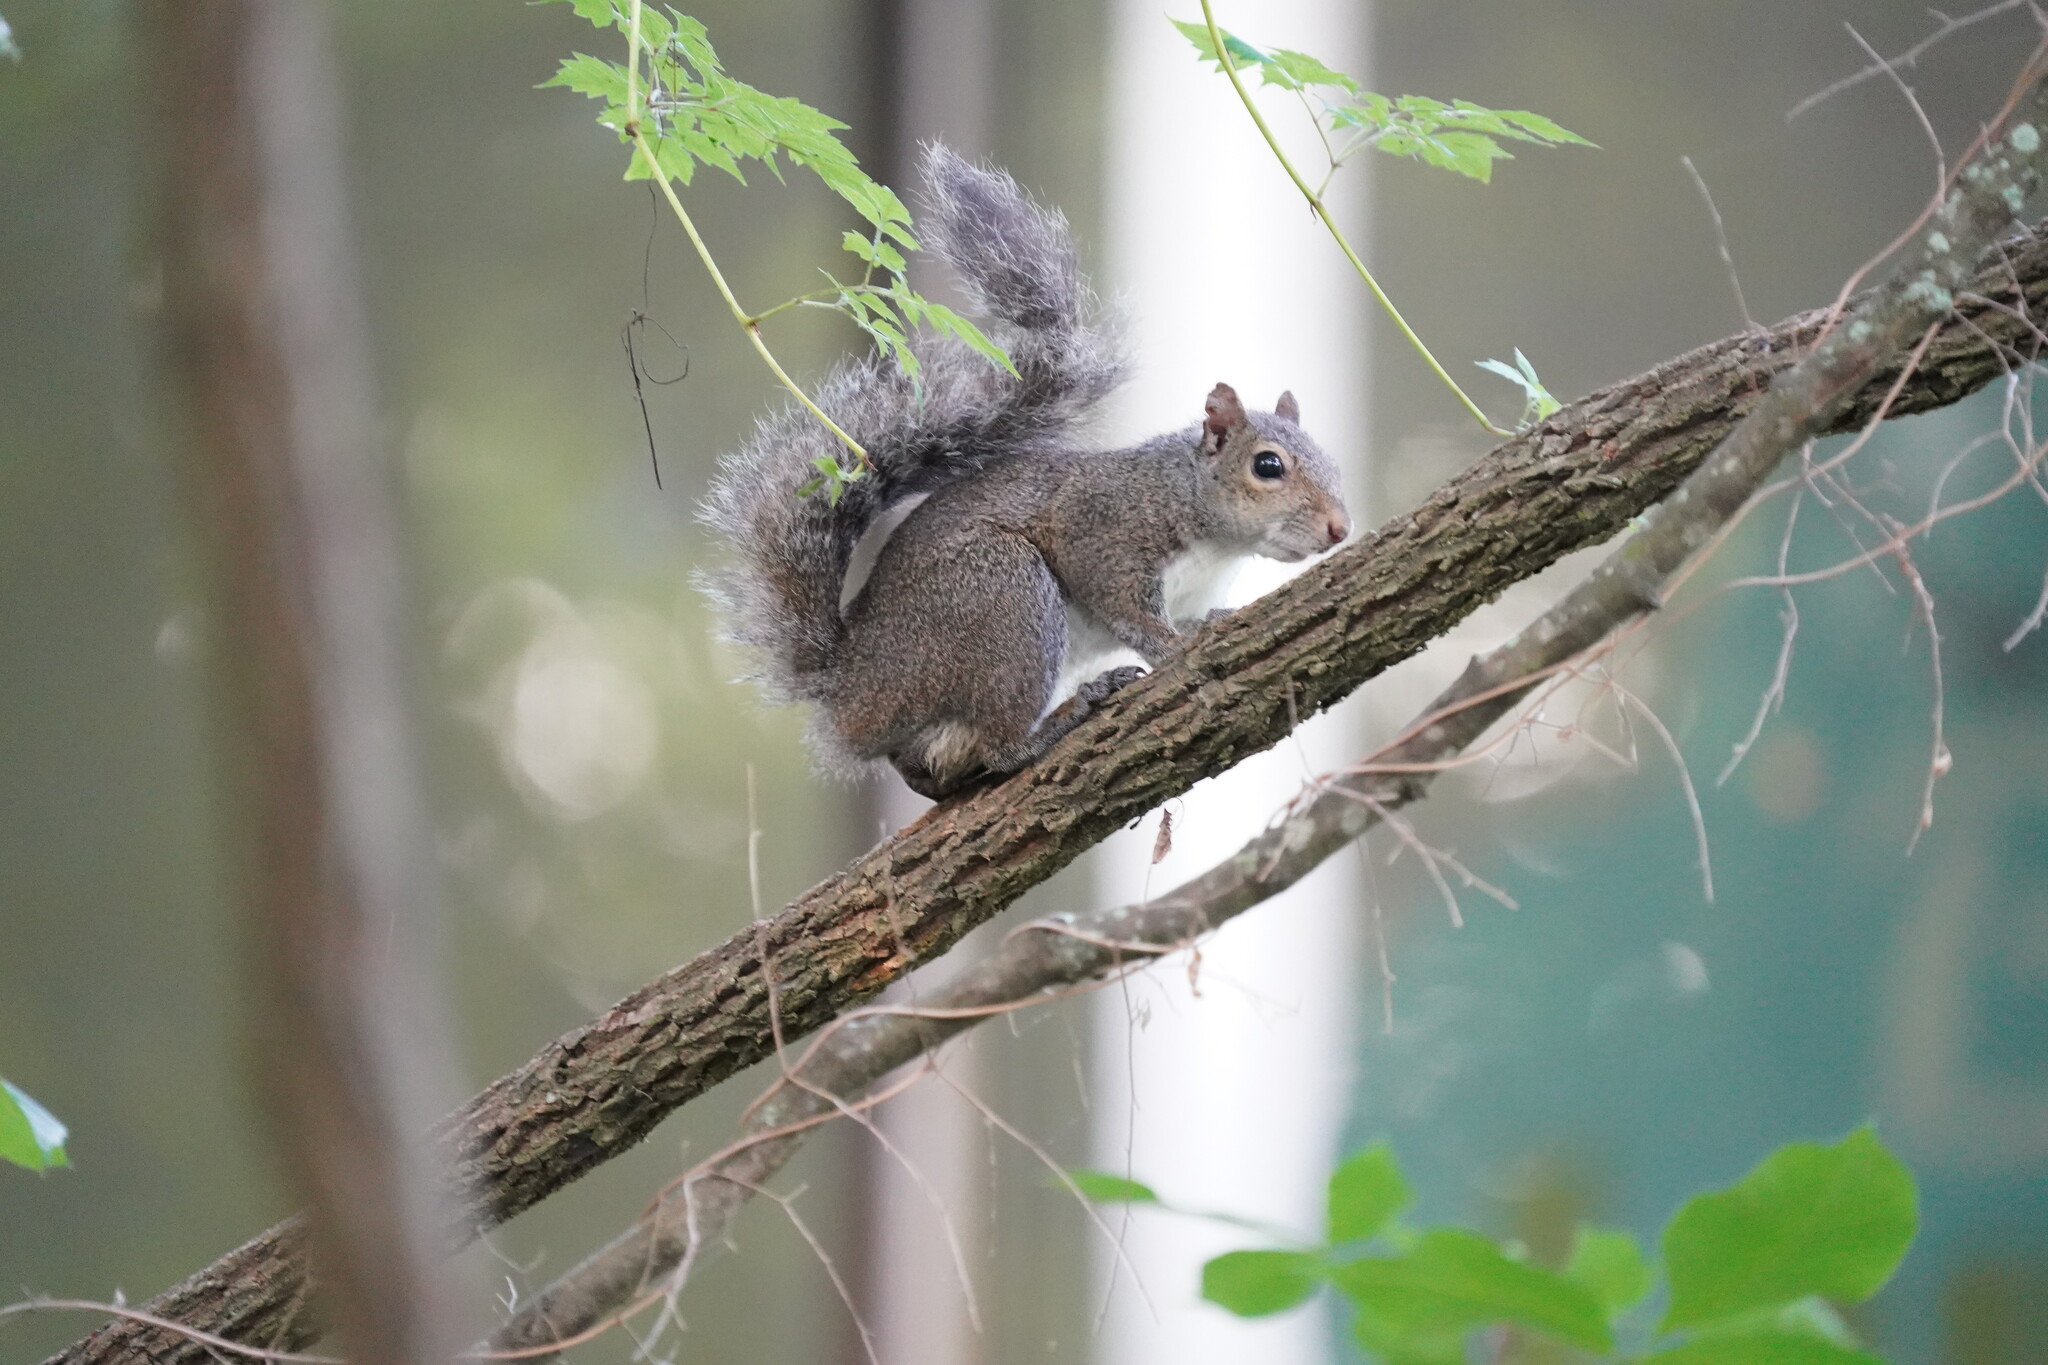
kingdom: Animalia
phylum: Chordata
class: Mammalia
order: Rodentia
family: Sciuridae
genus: Sciurus
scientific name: Sciurus carolinensis
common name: Eastern gray squirrel
